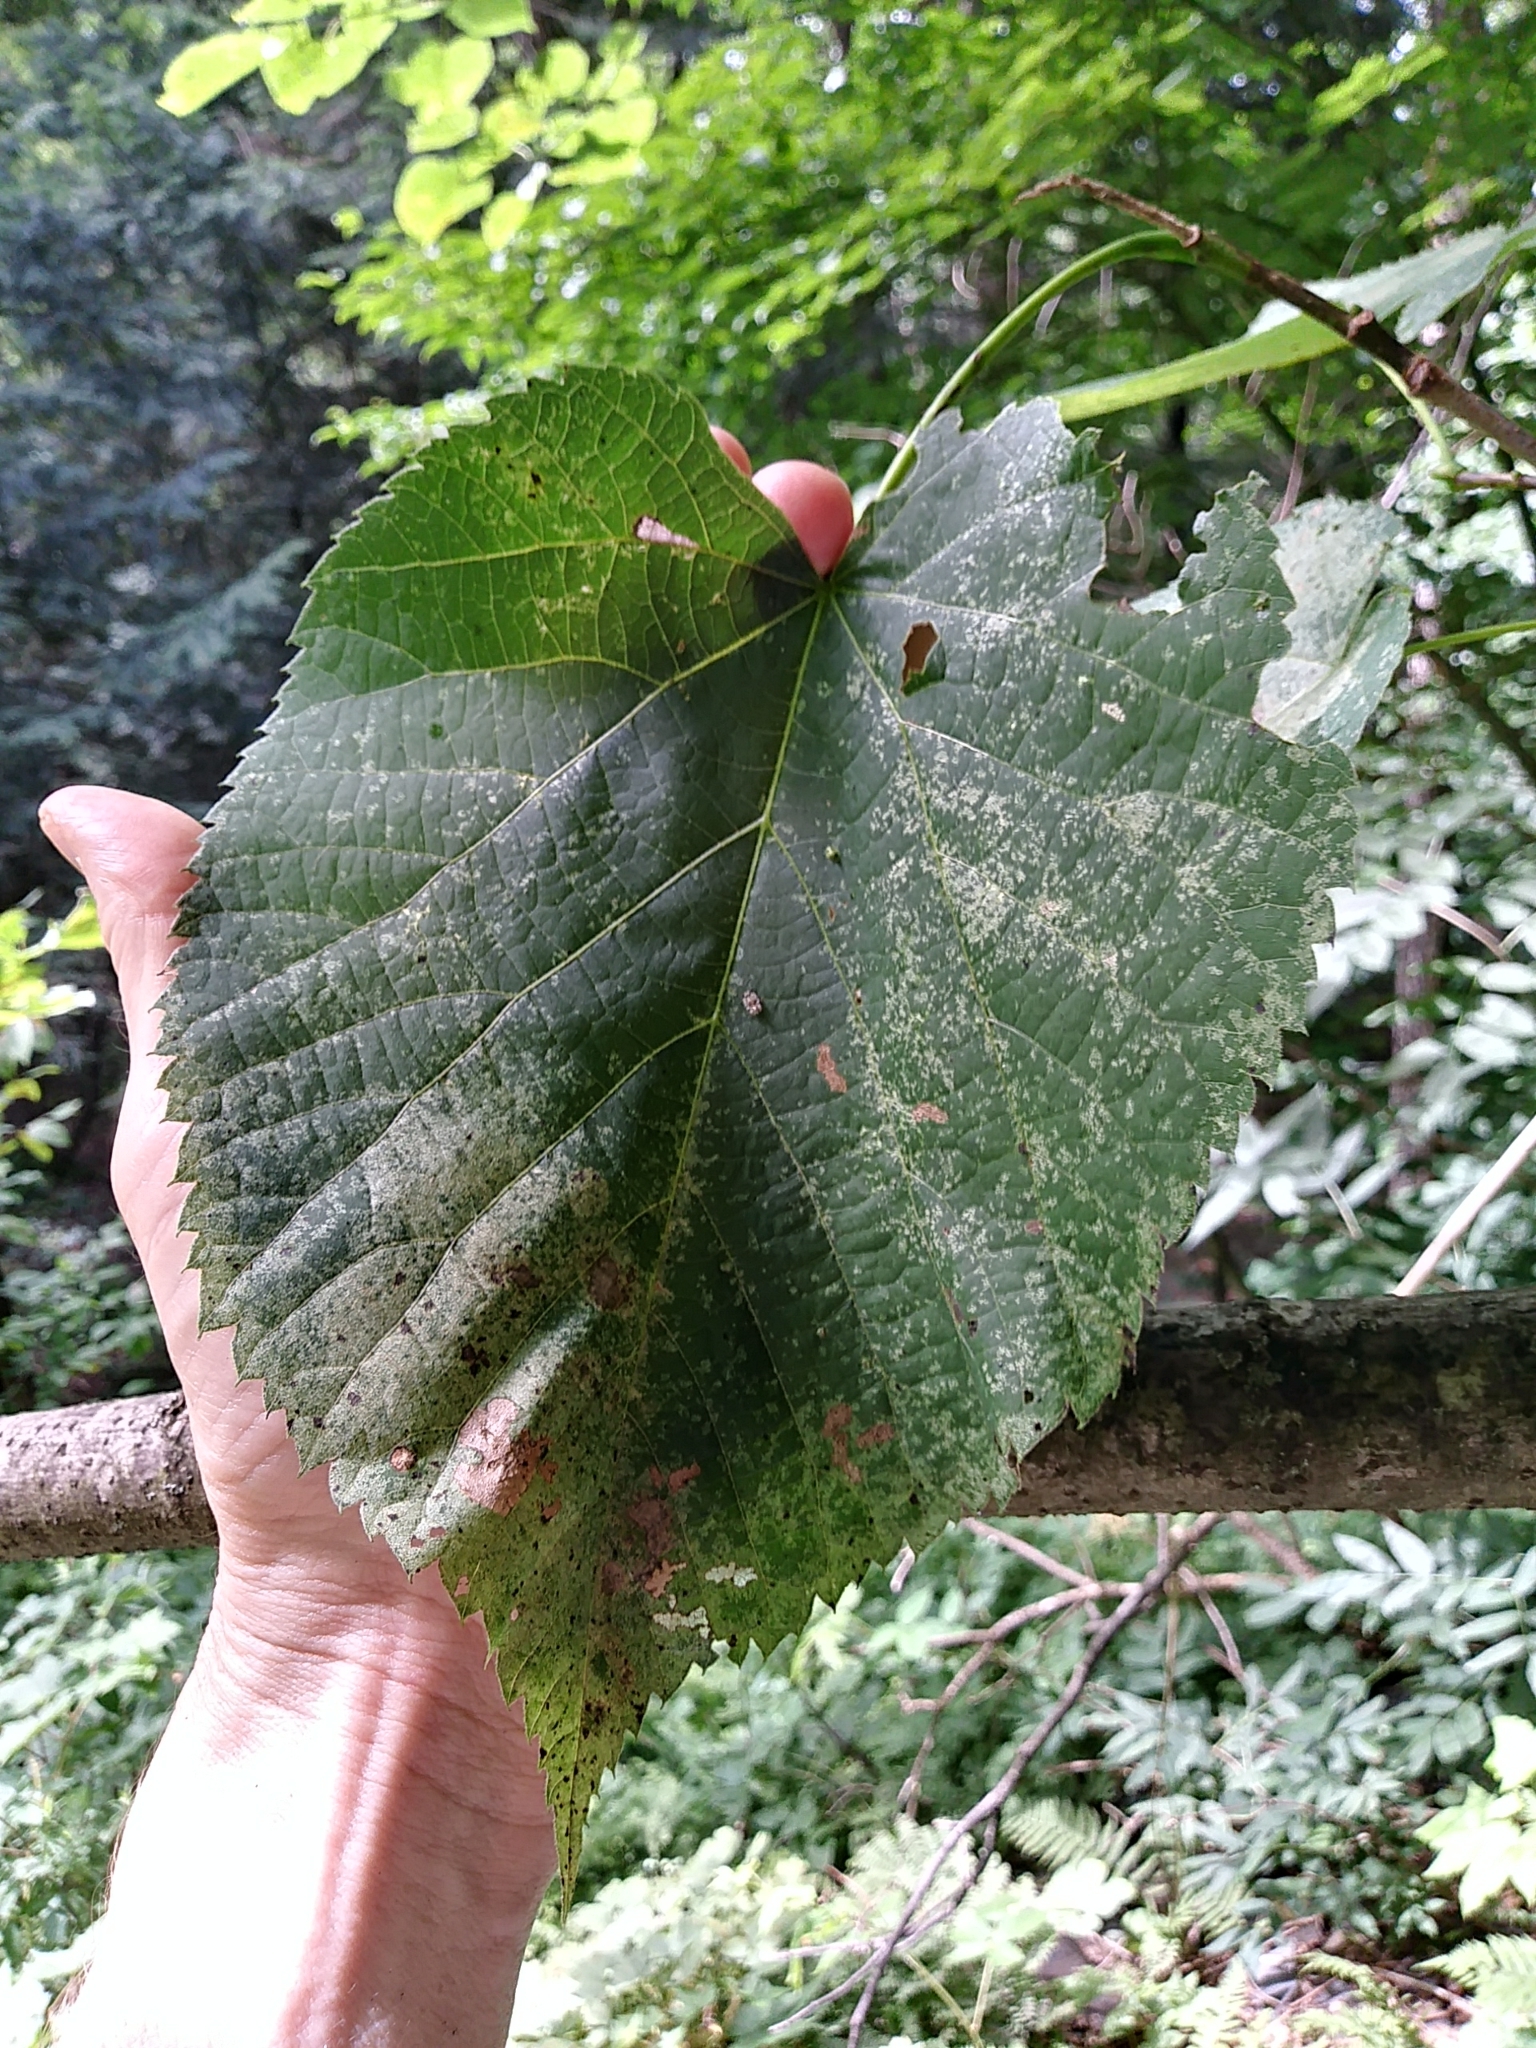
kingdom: Plantae
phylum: Tracheophyta
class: Magnoliopsida
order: Malvales
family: Malvaceae
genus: Tilia
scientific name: Tilia americana
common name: Basswood
